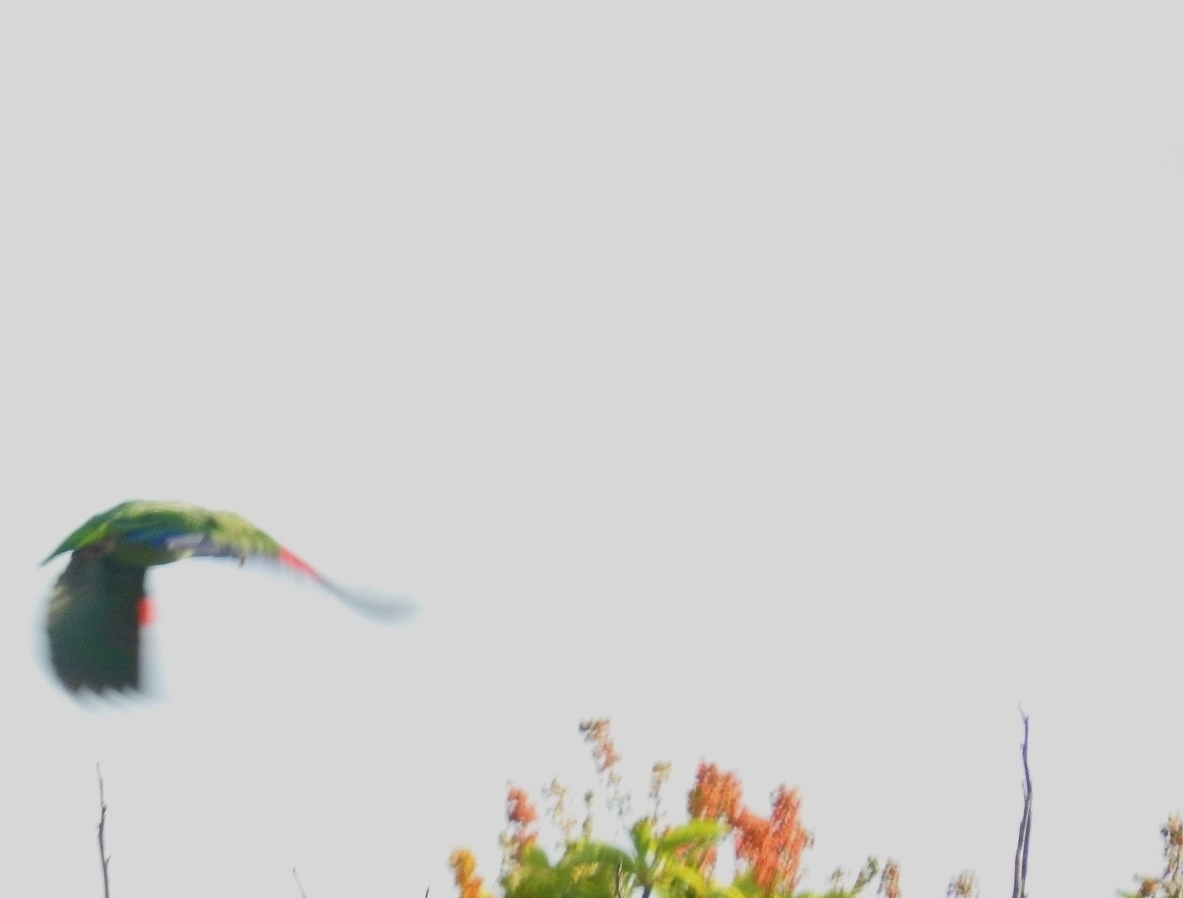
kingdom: Animalia
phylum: Chordata
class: Aves
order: Psittaciformes
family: Psittacidae
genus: Amazona
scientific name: Amazona albifrons
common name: White-fronted amazon
